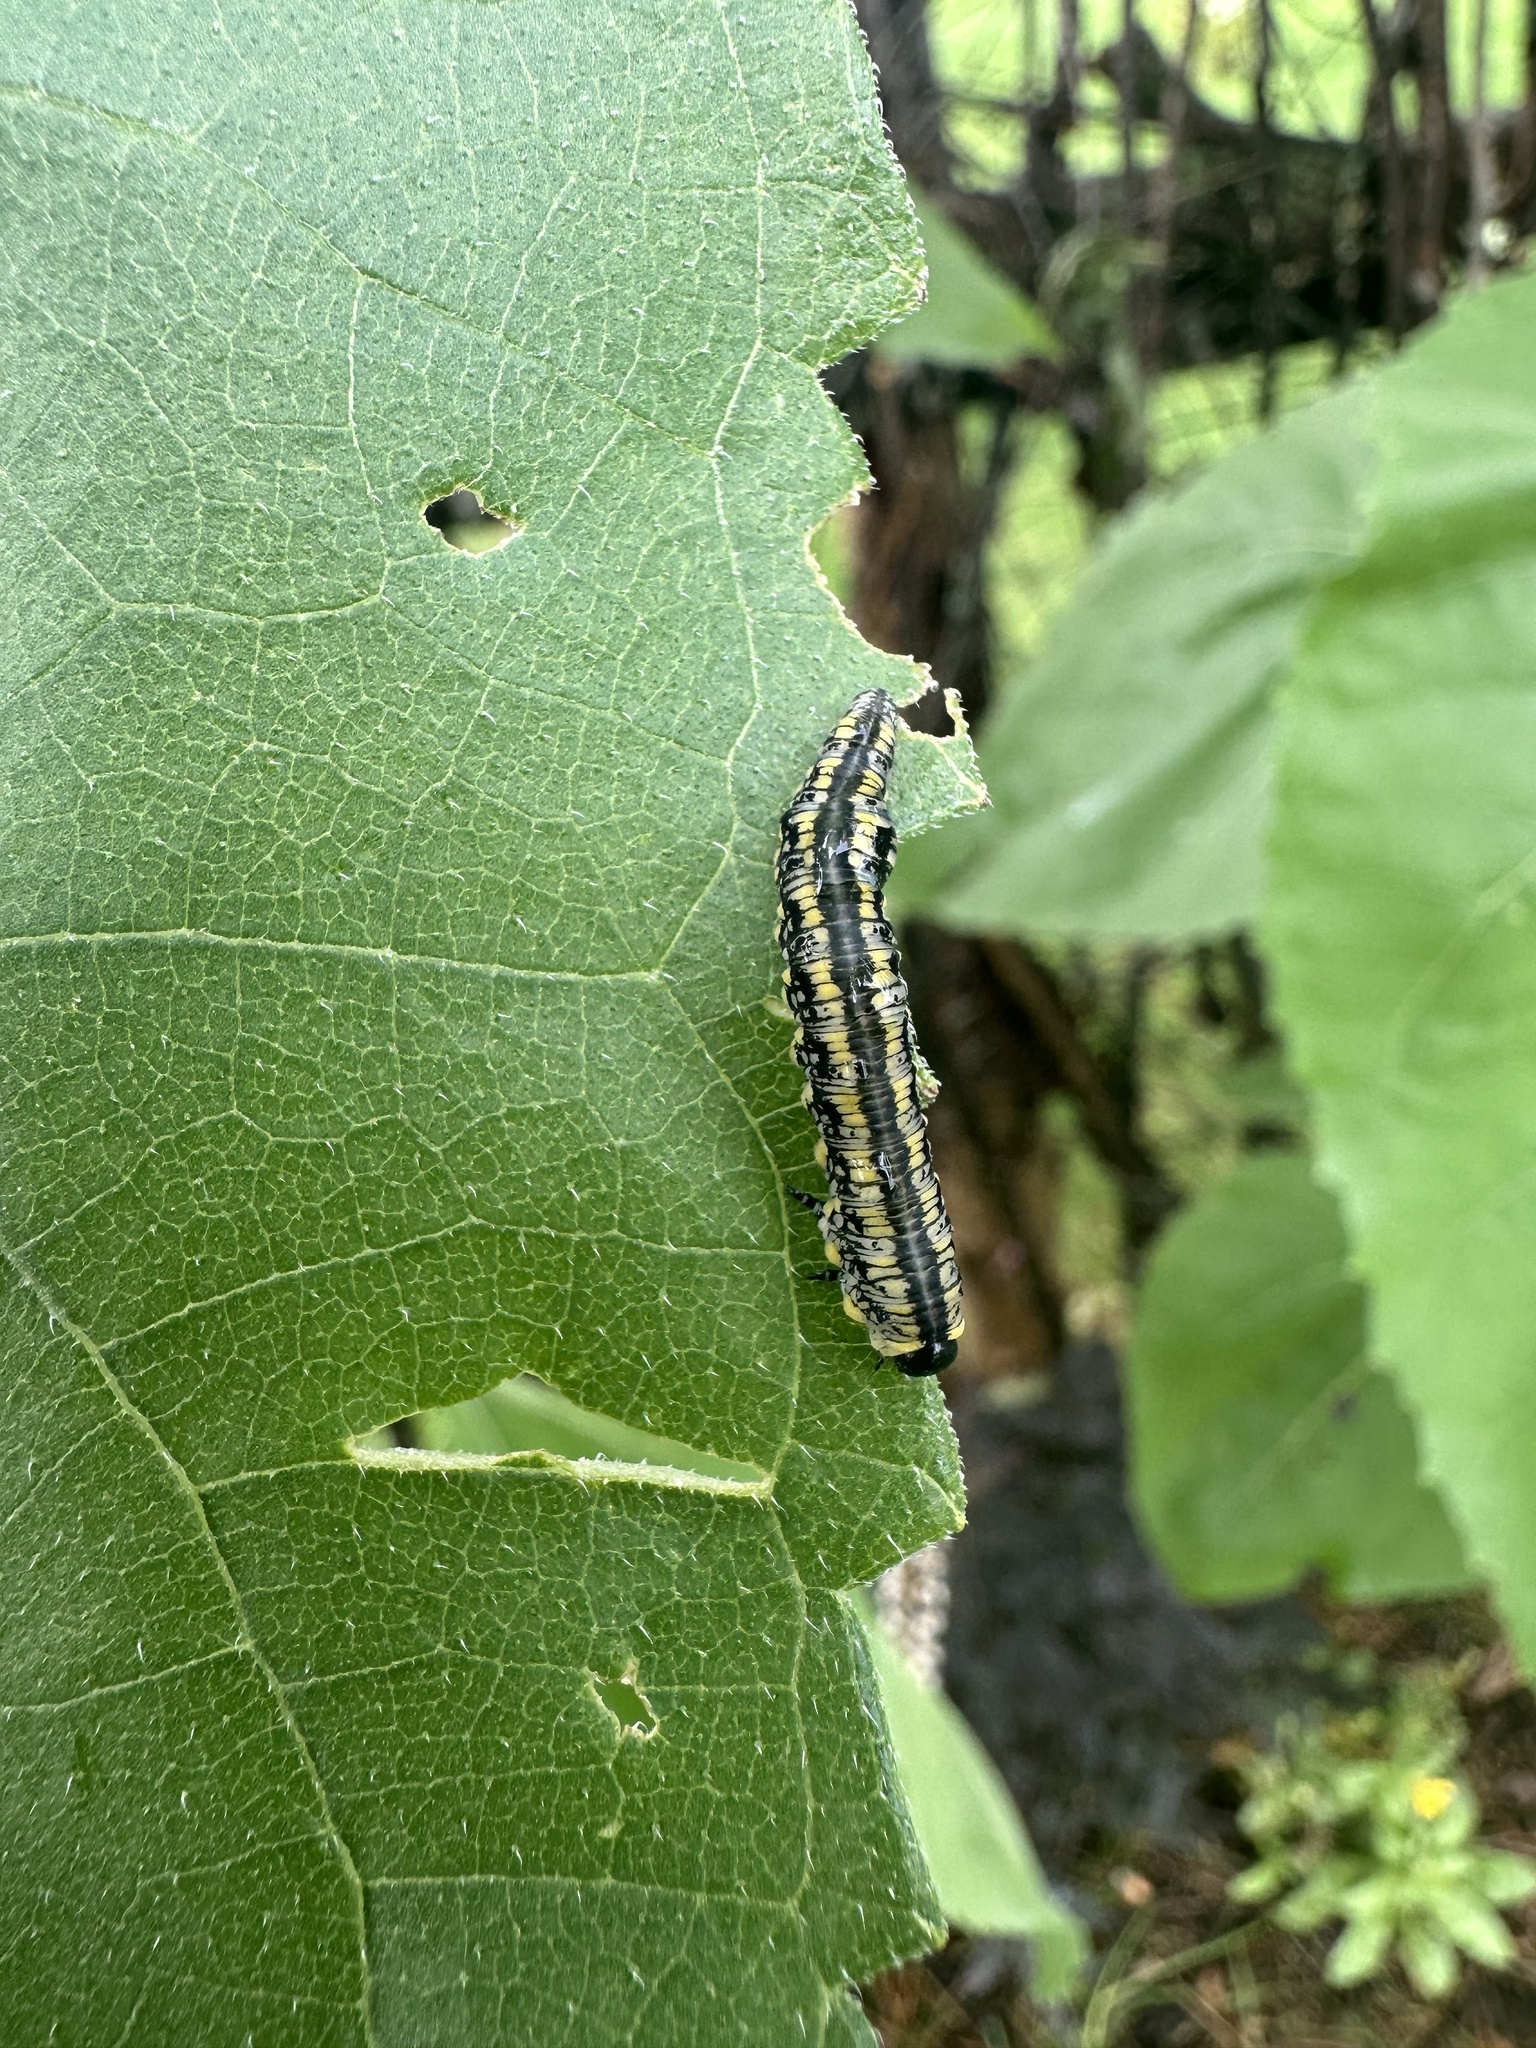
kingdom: Animalia
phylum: Arthropoda
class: Insecta
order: Hymenoptera
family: Diprionidae
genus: Diprion
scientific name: Diprion similis
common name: Pine sawfly
